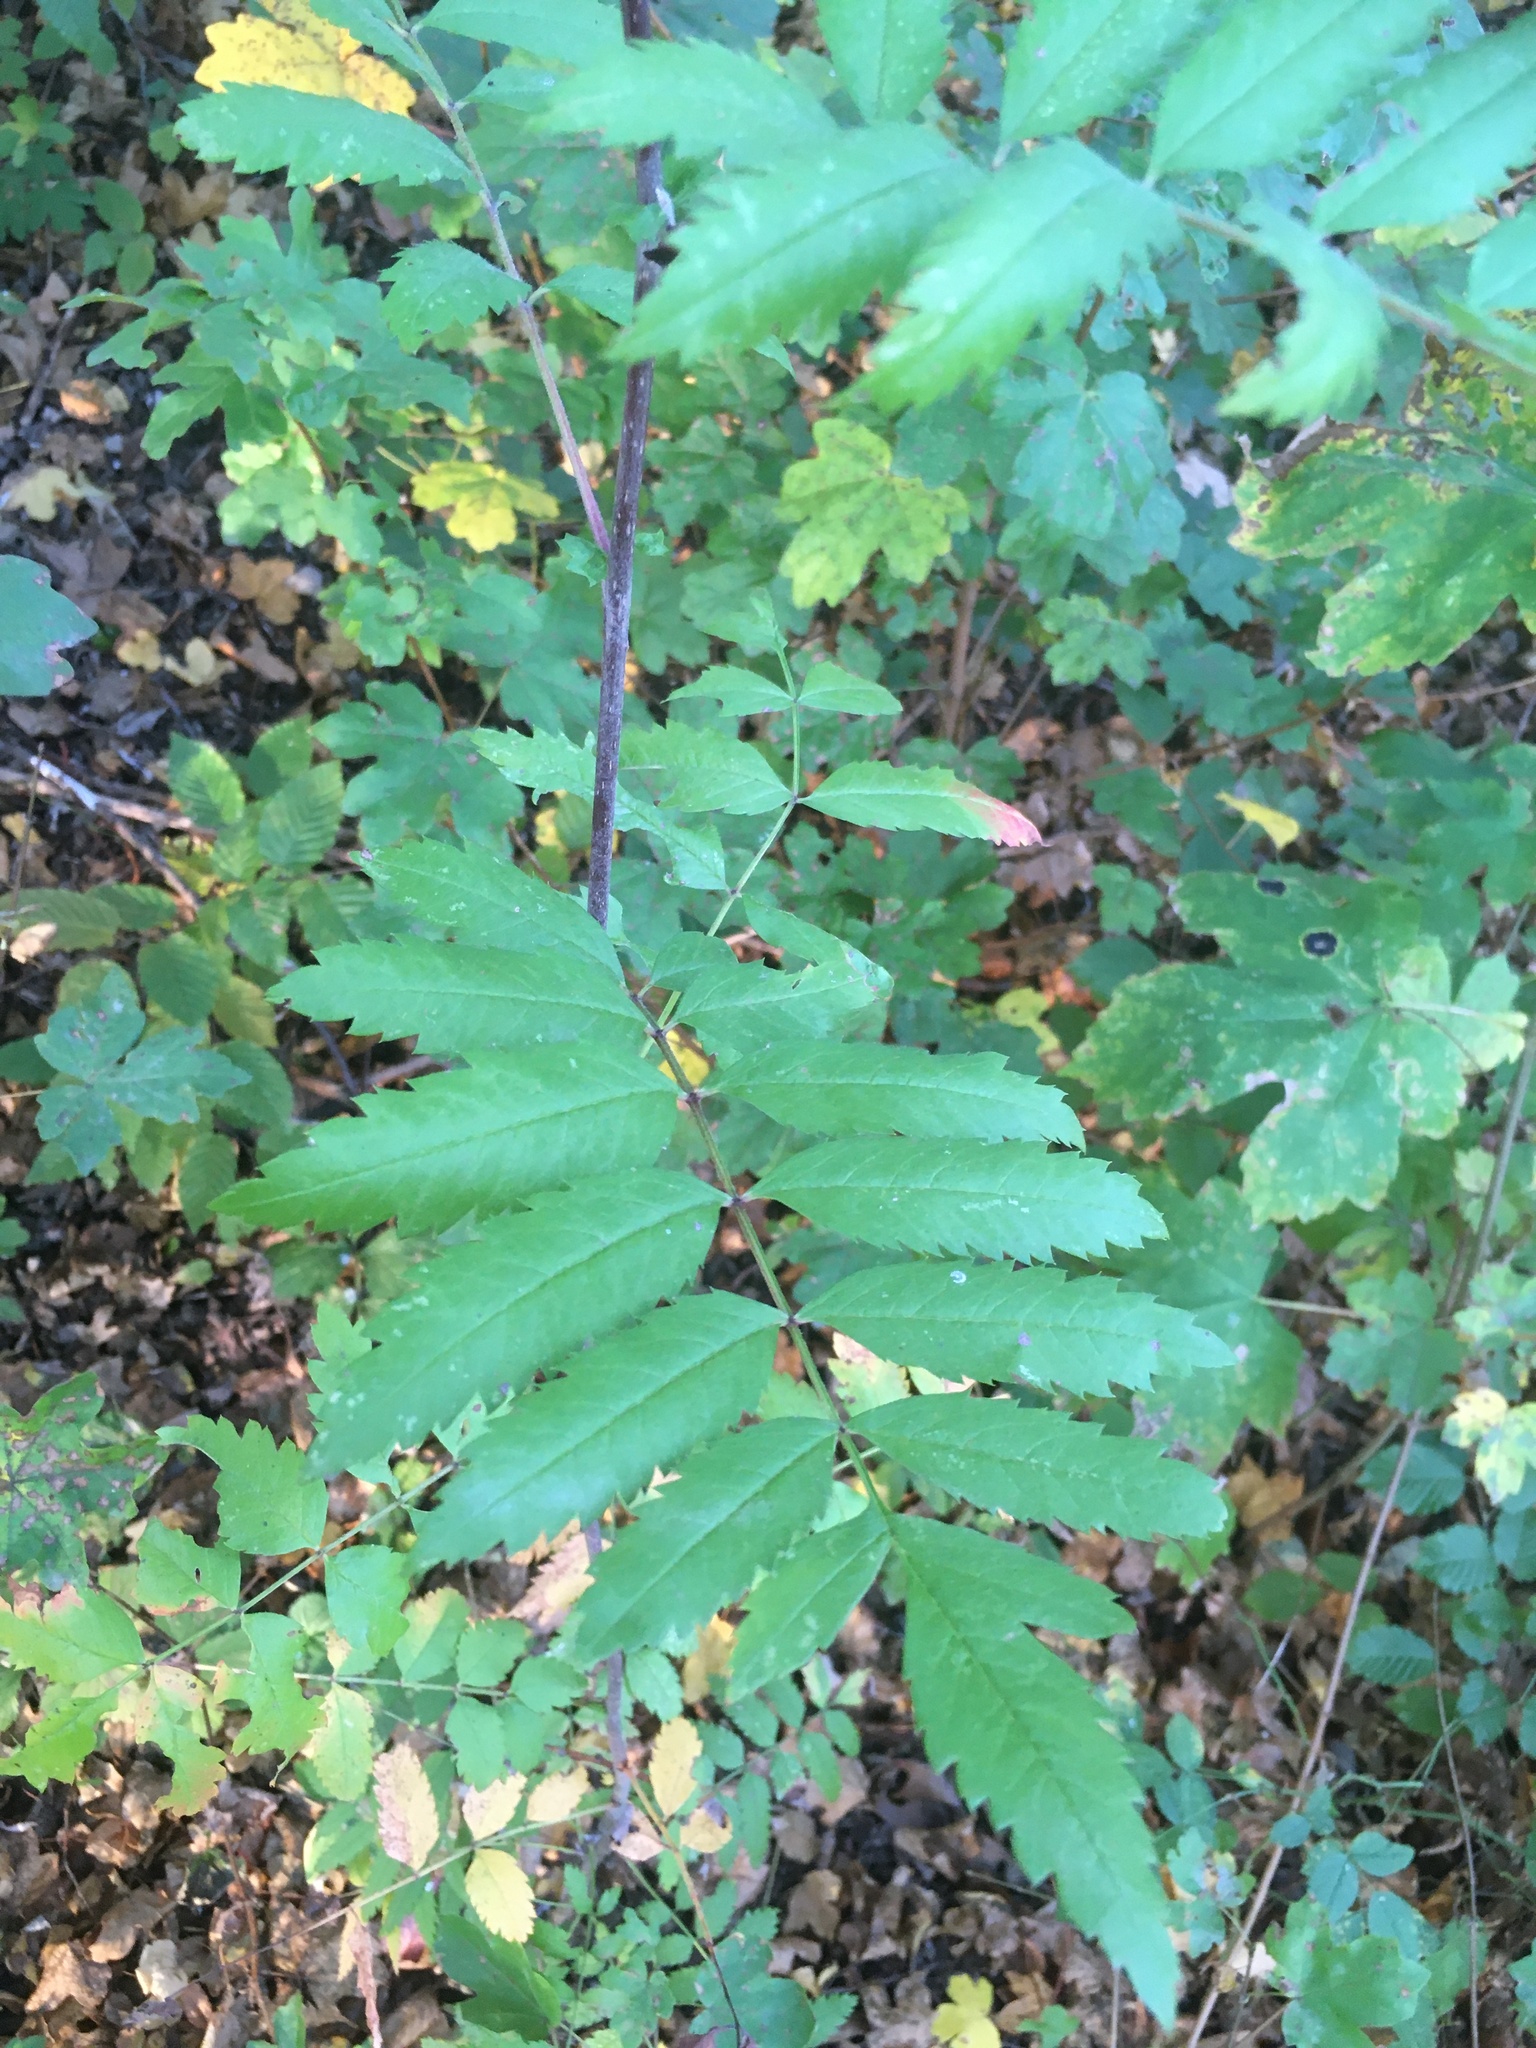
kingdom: Plantae
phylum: Tracheophyta
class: Magnoliopsida
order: Rosales
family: Rosaceae
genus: Sorbus
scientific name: Sorbus aucuparia
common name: Rowan
